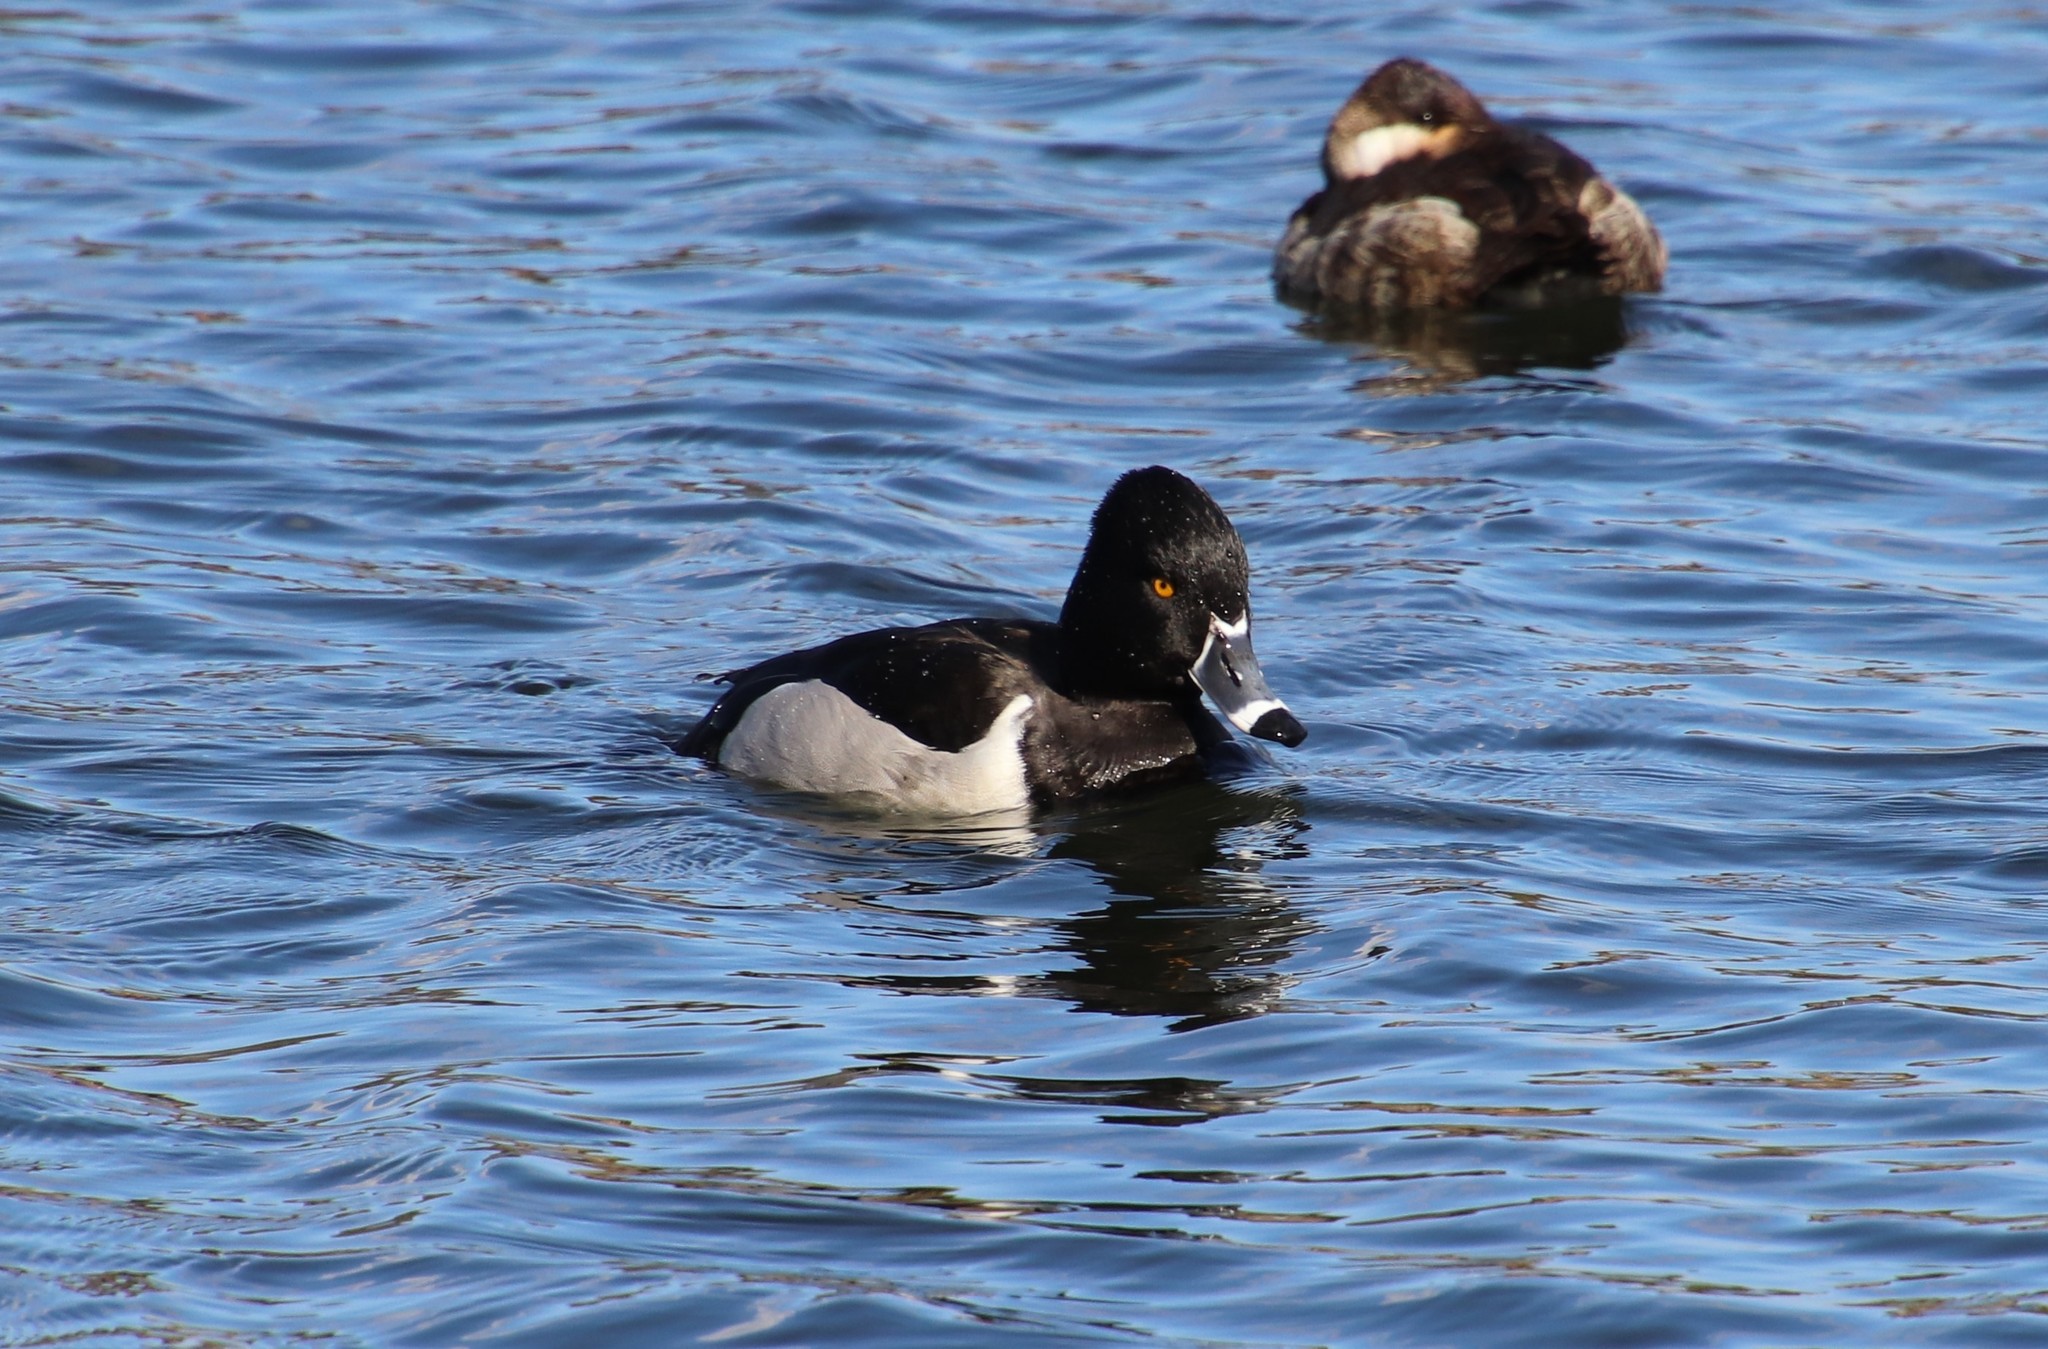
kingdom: Animalia
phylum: Chordata
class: Aves
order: Anseriformes
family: Anatidae
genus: Aythya
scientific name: Aythya collaris
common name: Ring-necked duck
